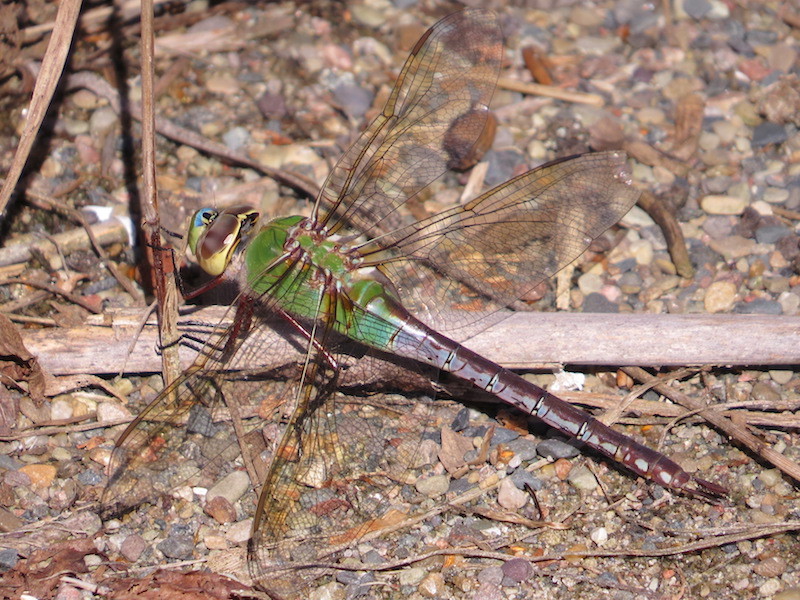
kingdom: Animalia
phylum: Arthropoda
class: Insecta
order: Odonata
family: Aeshnidae
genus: Anax
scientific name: Anax junius
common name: Common green darner
